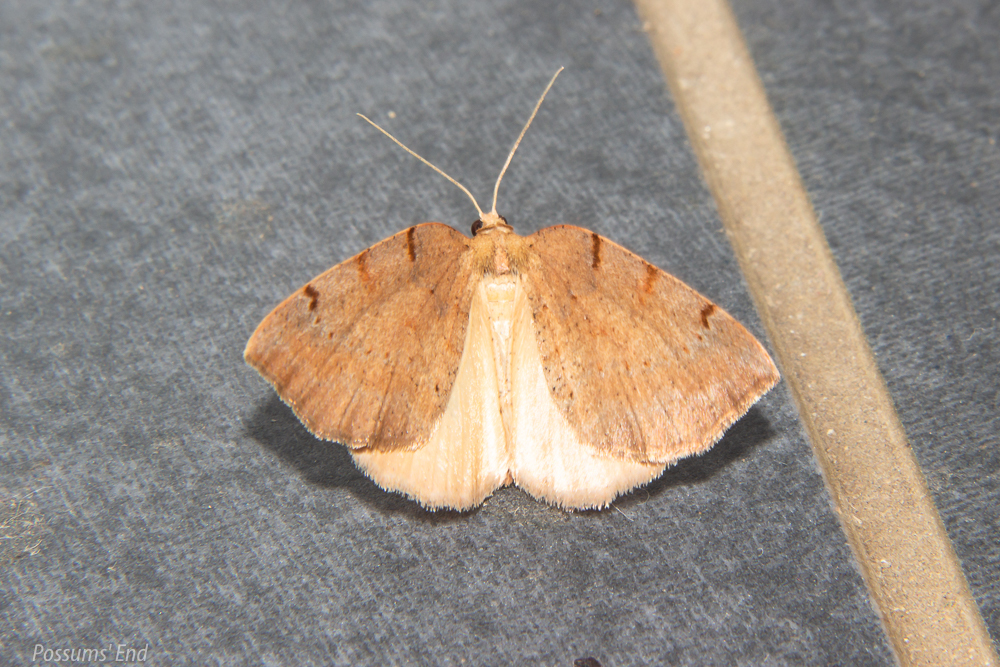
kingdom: Animalia
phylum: Arthropoda
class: Insecta
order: Lepidoptera
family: Geometridae
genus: Sestra
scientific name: Sestra humeraria
